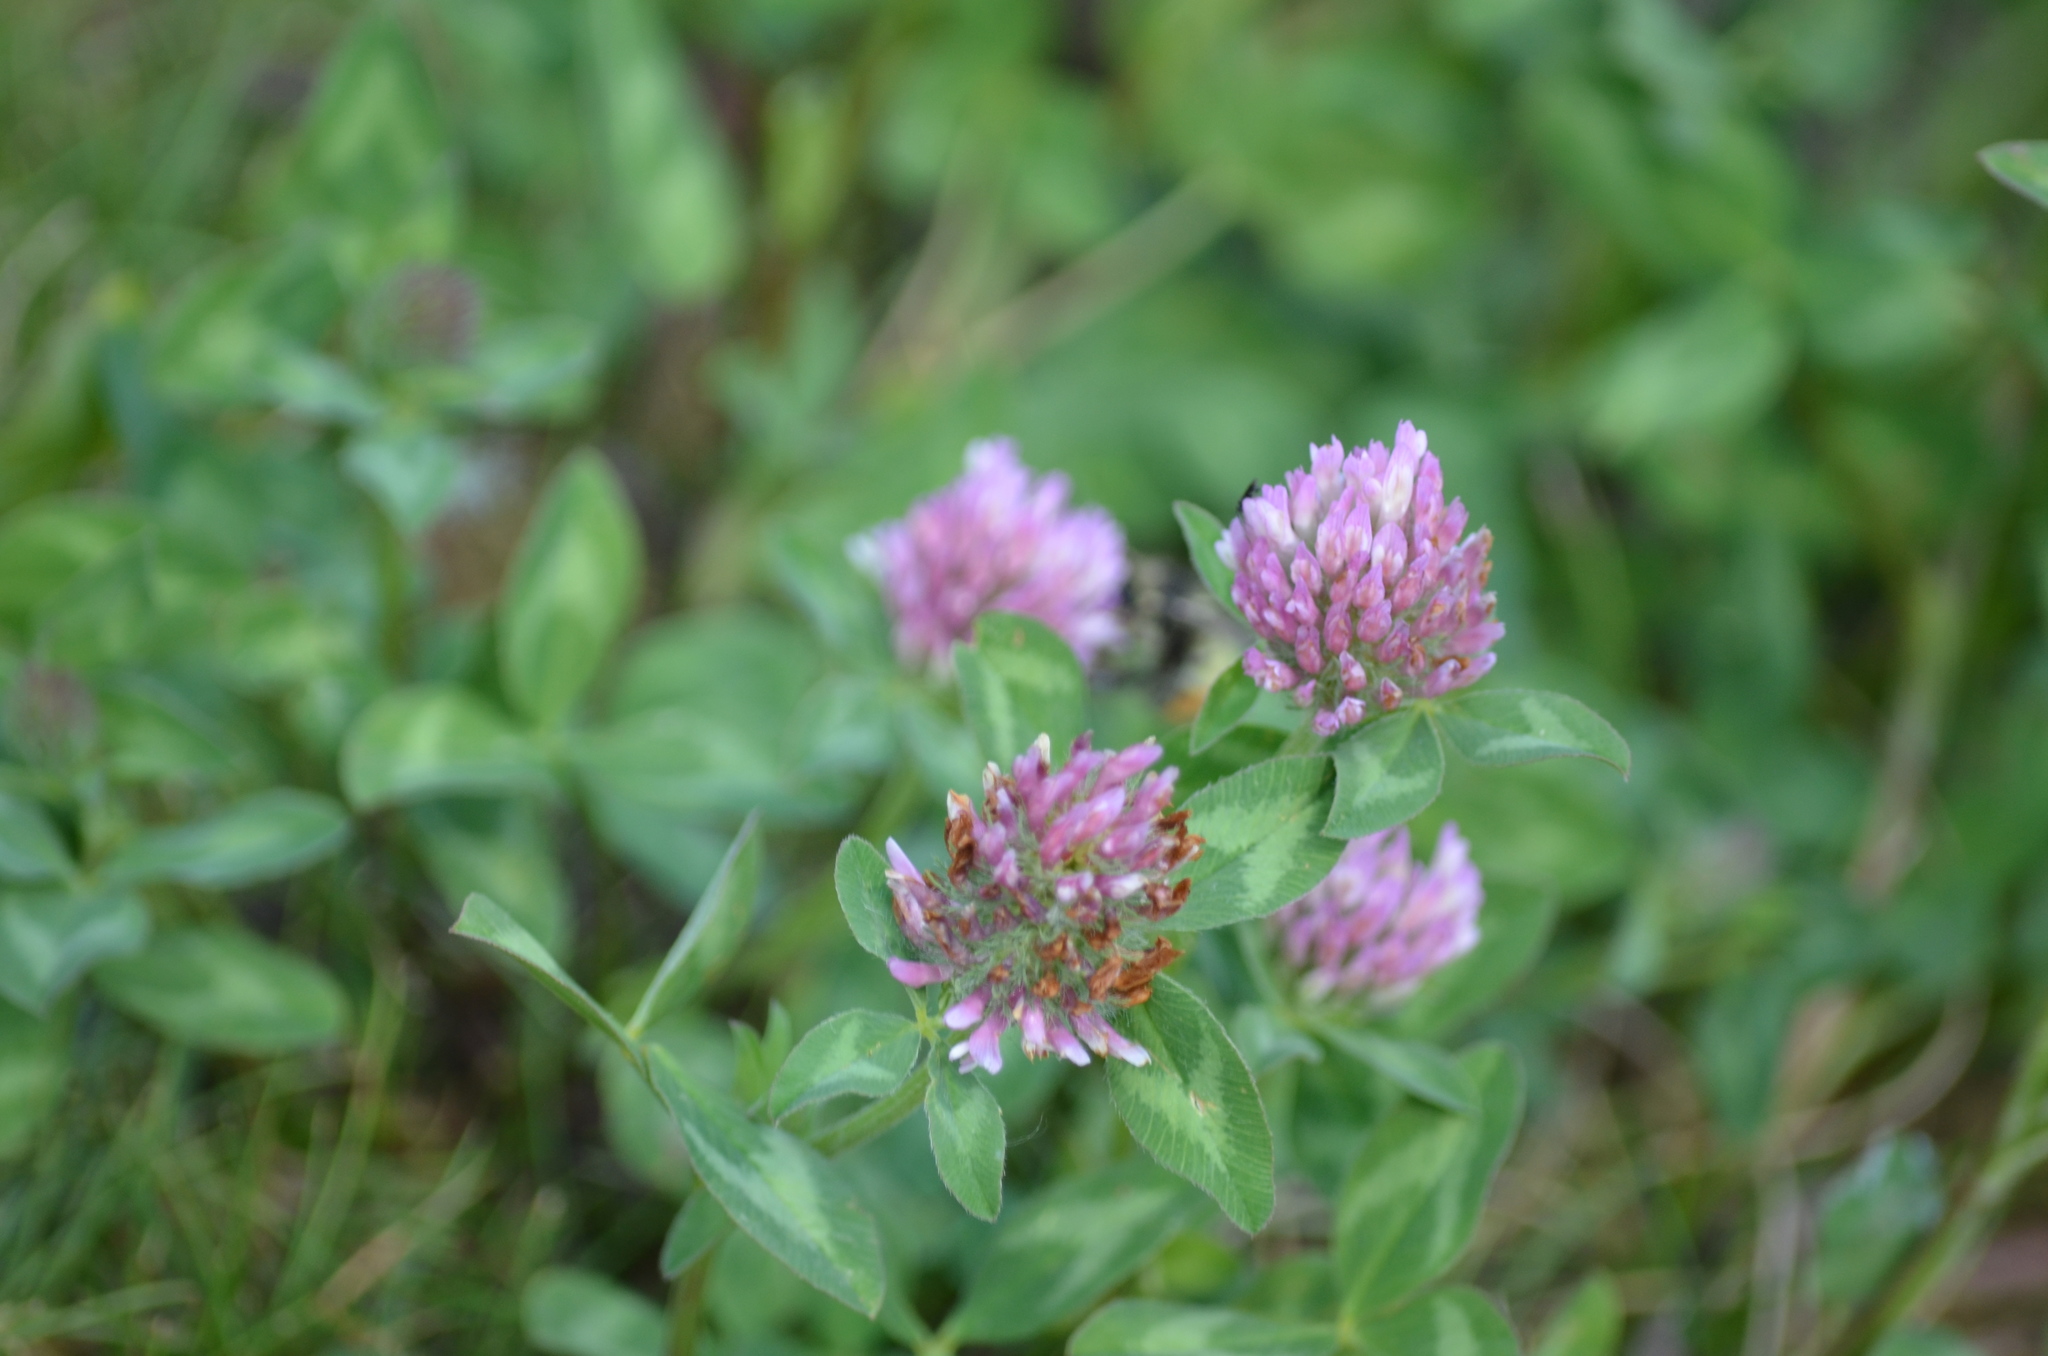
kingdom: Plantae
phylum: Tracheophyta
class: Magnoliopsida
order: Fabales
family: Fabaceae
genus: Trifolium
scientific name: Trifolium pratense
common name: Red clover
